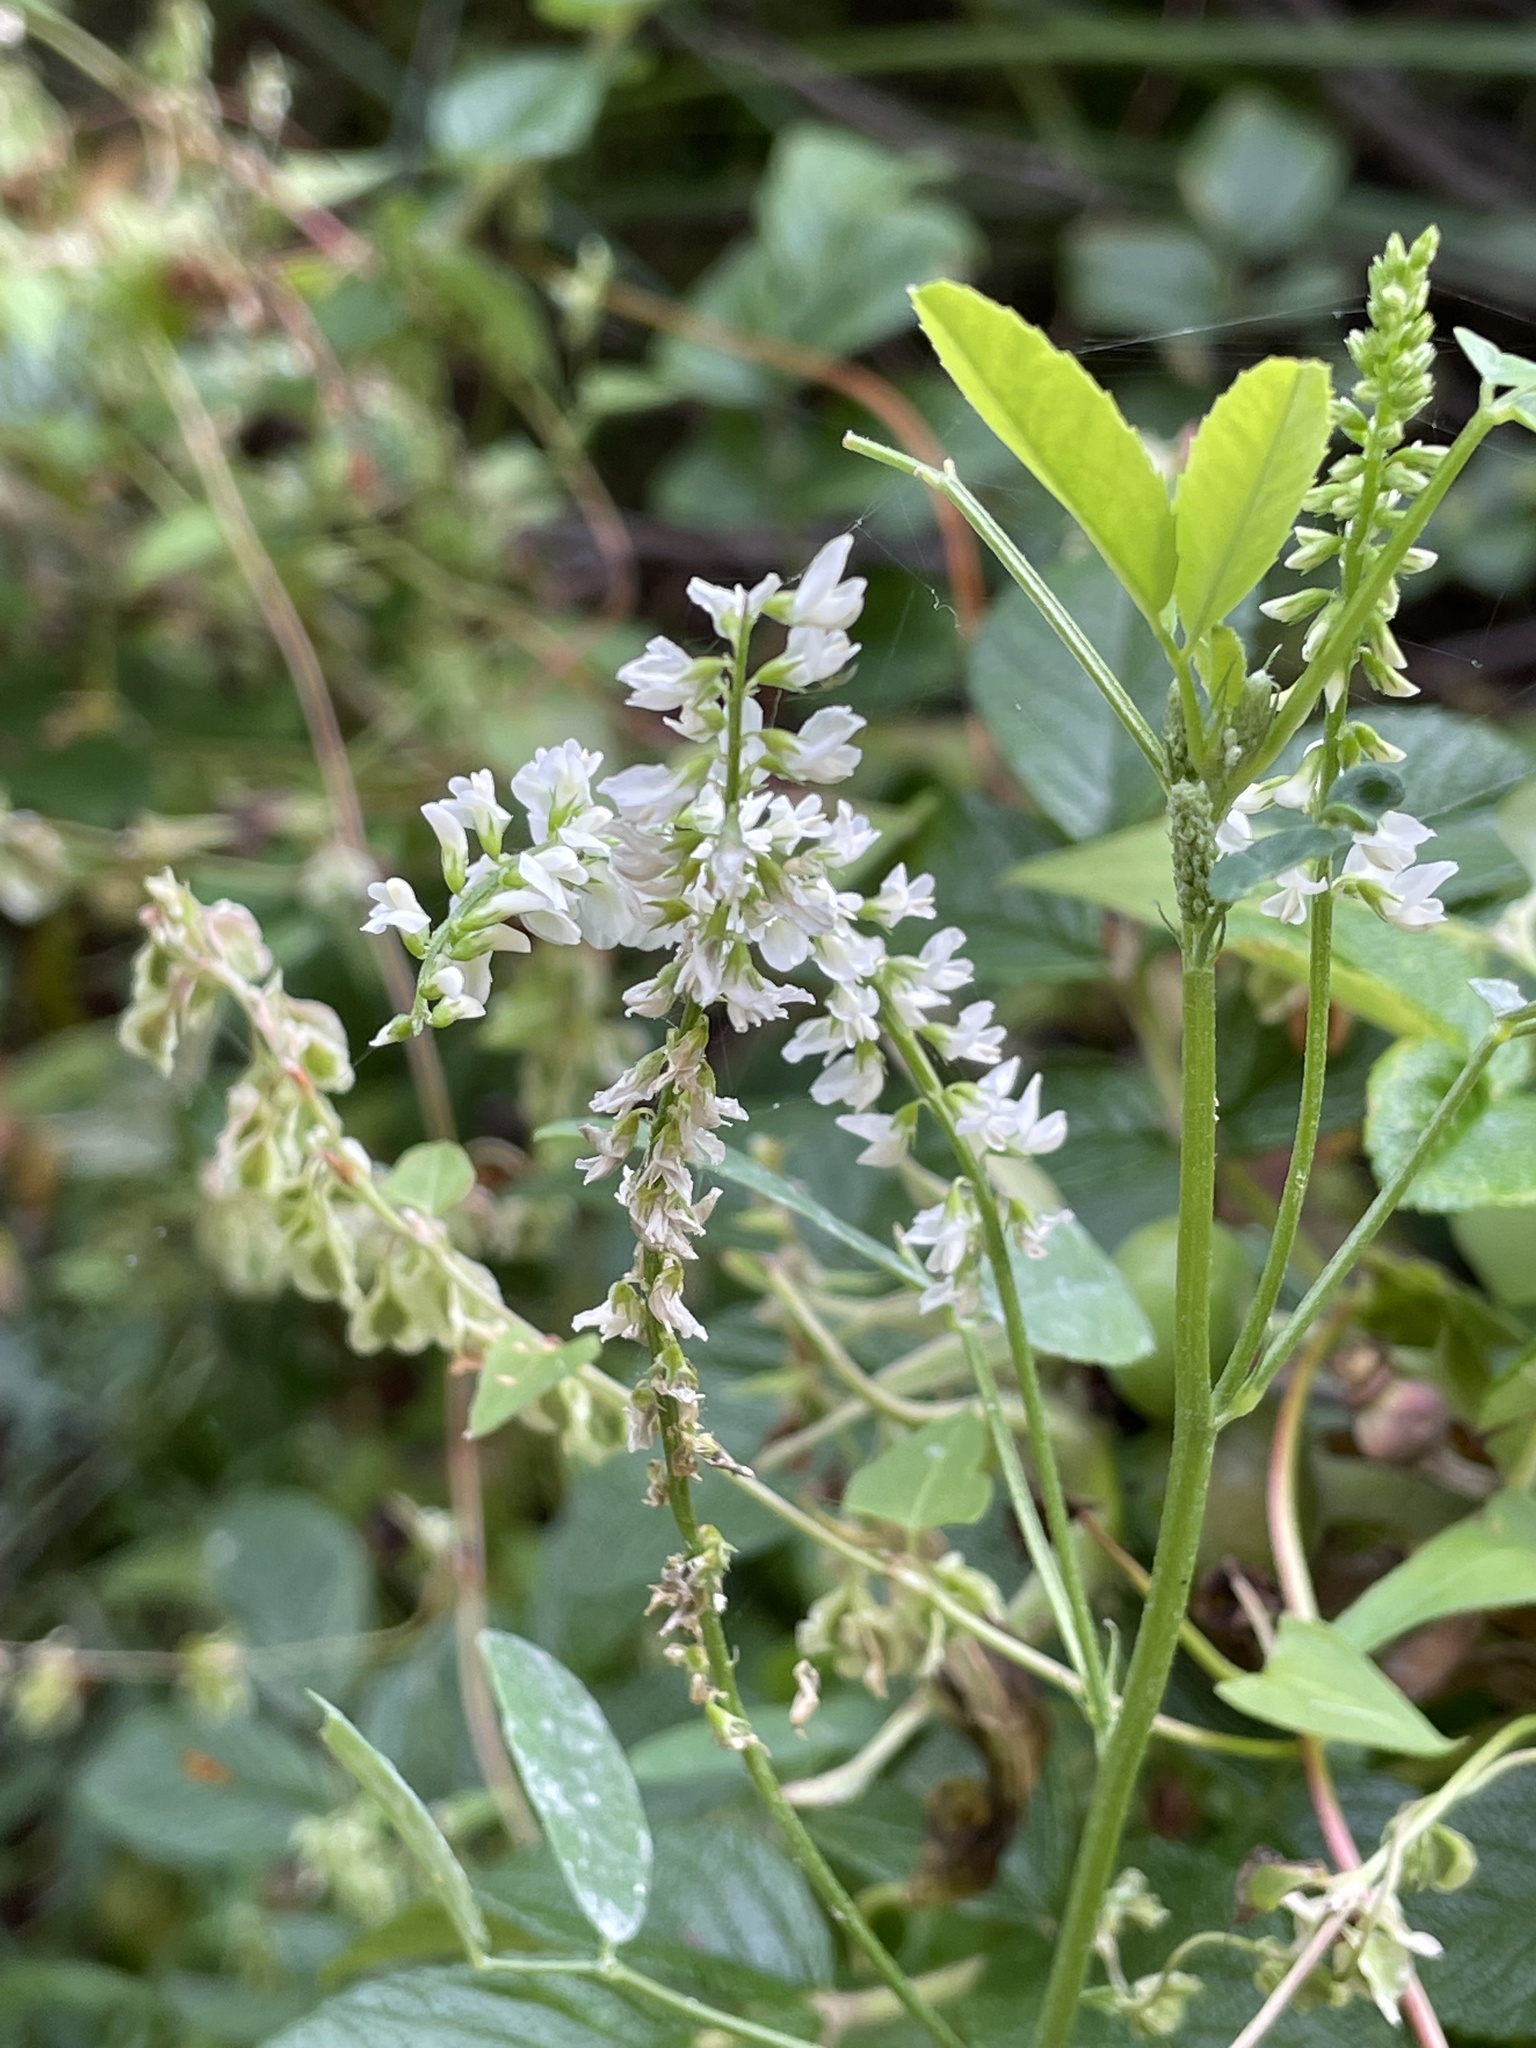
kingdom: Plantae
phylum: Tracheophyta
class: Magnoliopsida
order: Fabales
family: Fabaceae
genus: Melilotus
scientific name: Melilotus albus
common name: White melilot
